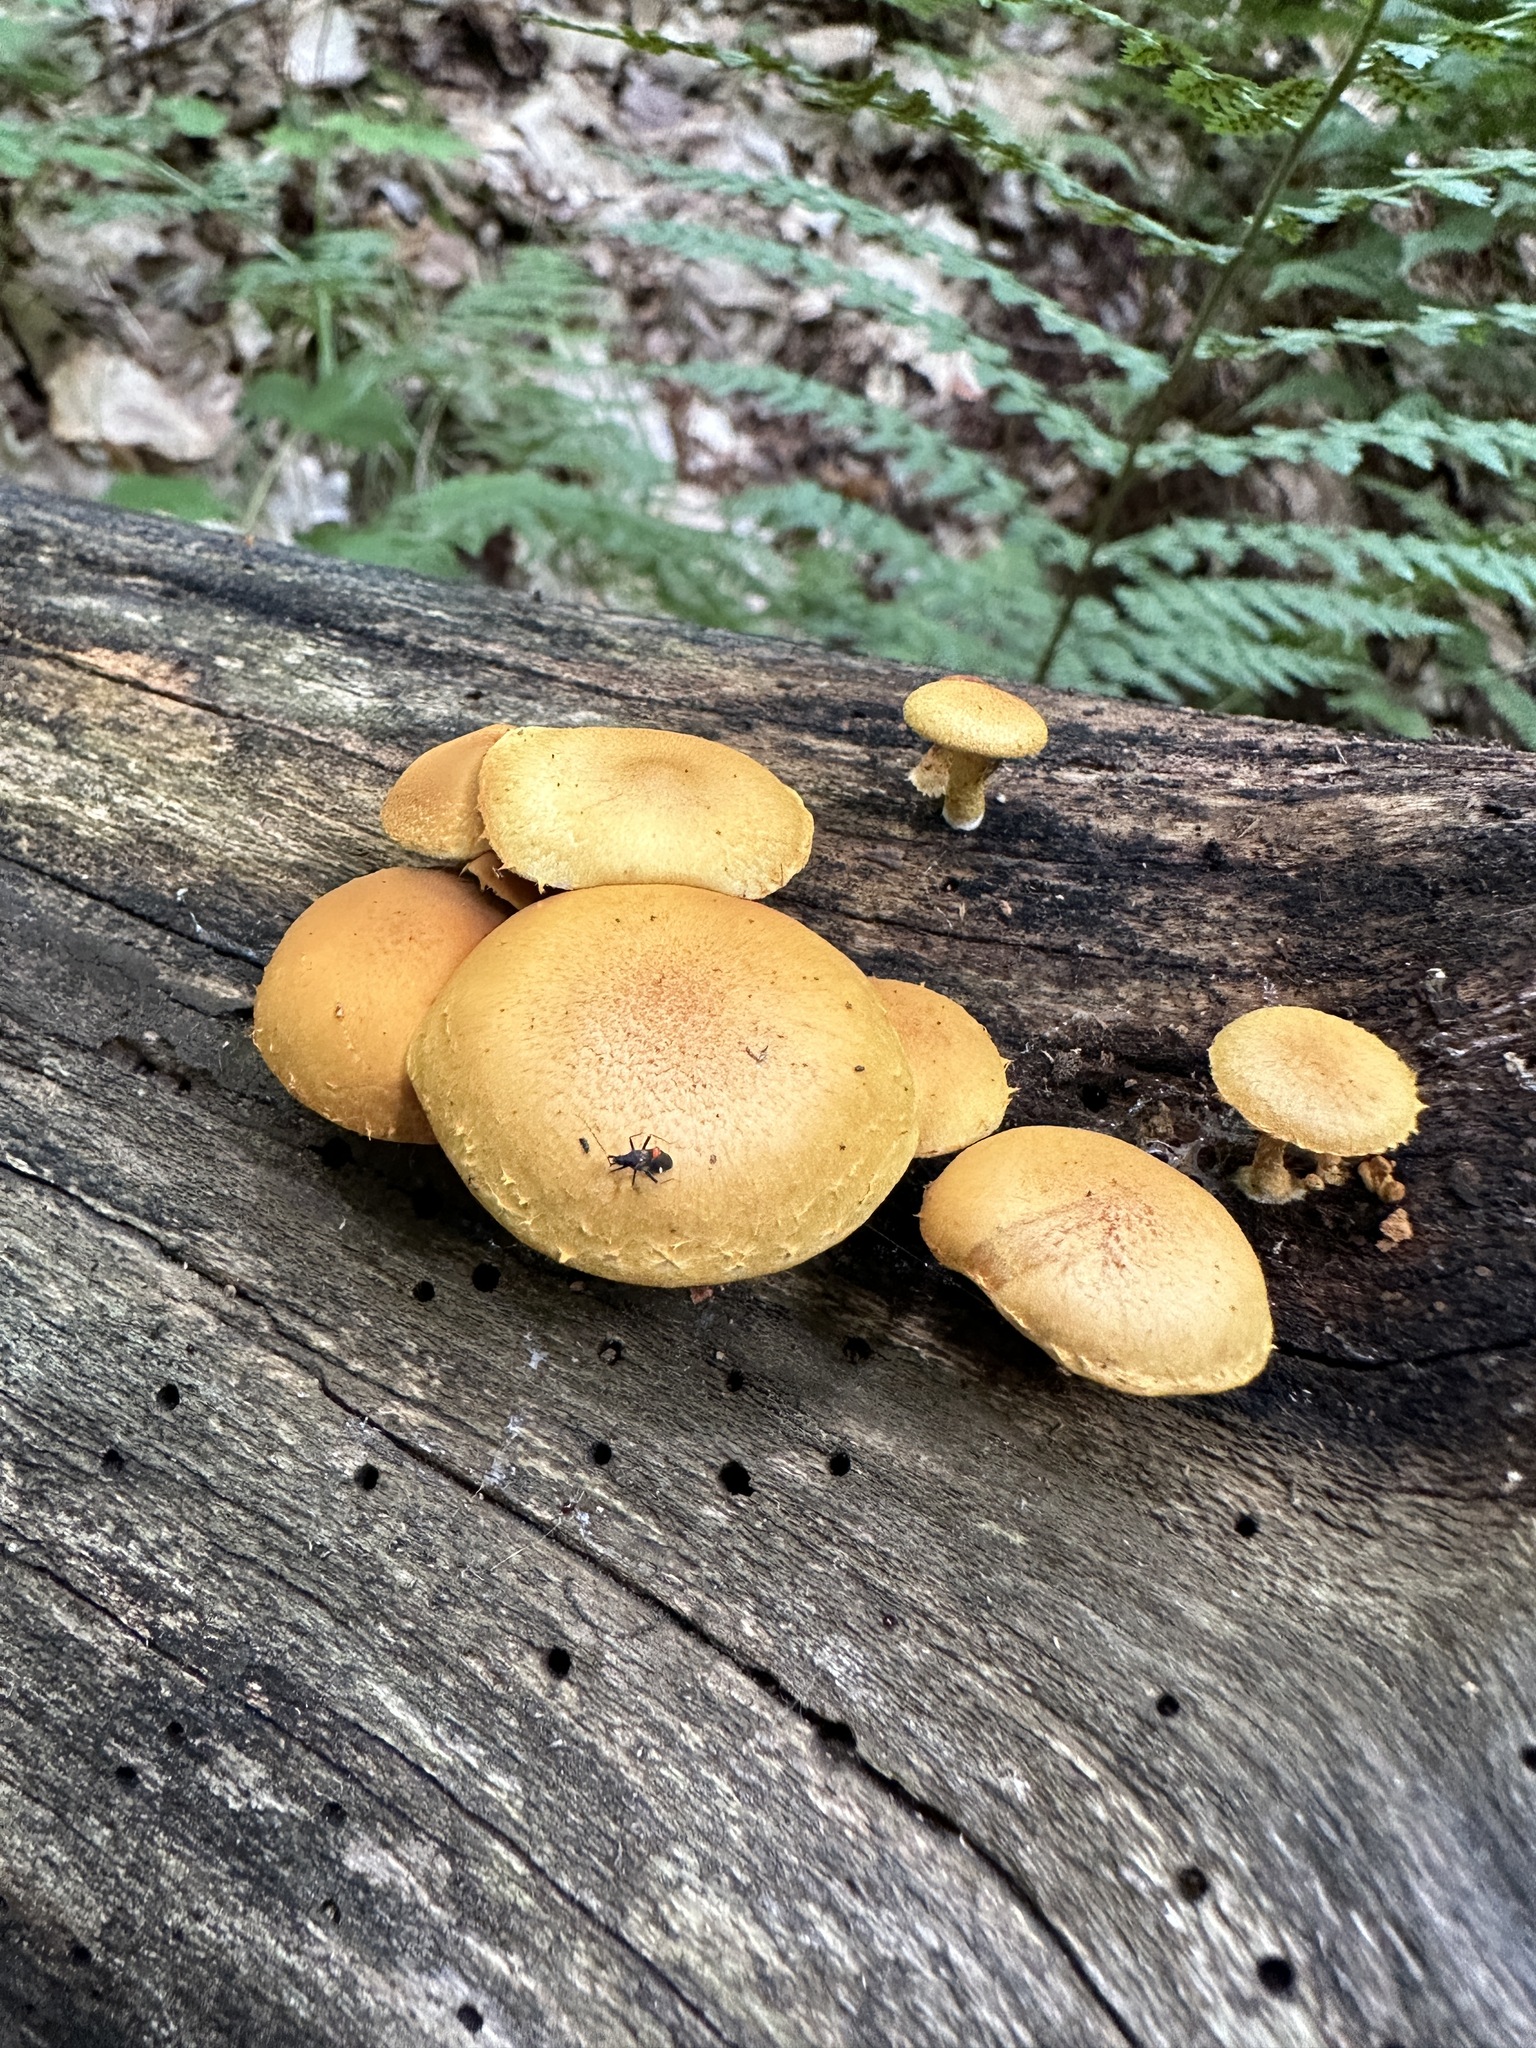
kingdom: Fungi
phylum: Basidiomycota
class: Agaricomycetes
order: Agaricales
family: Hymenogastraceae
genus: Gymnopilus
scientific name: Gymnopilus sapineus
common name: Scaly rustgill
